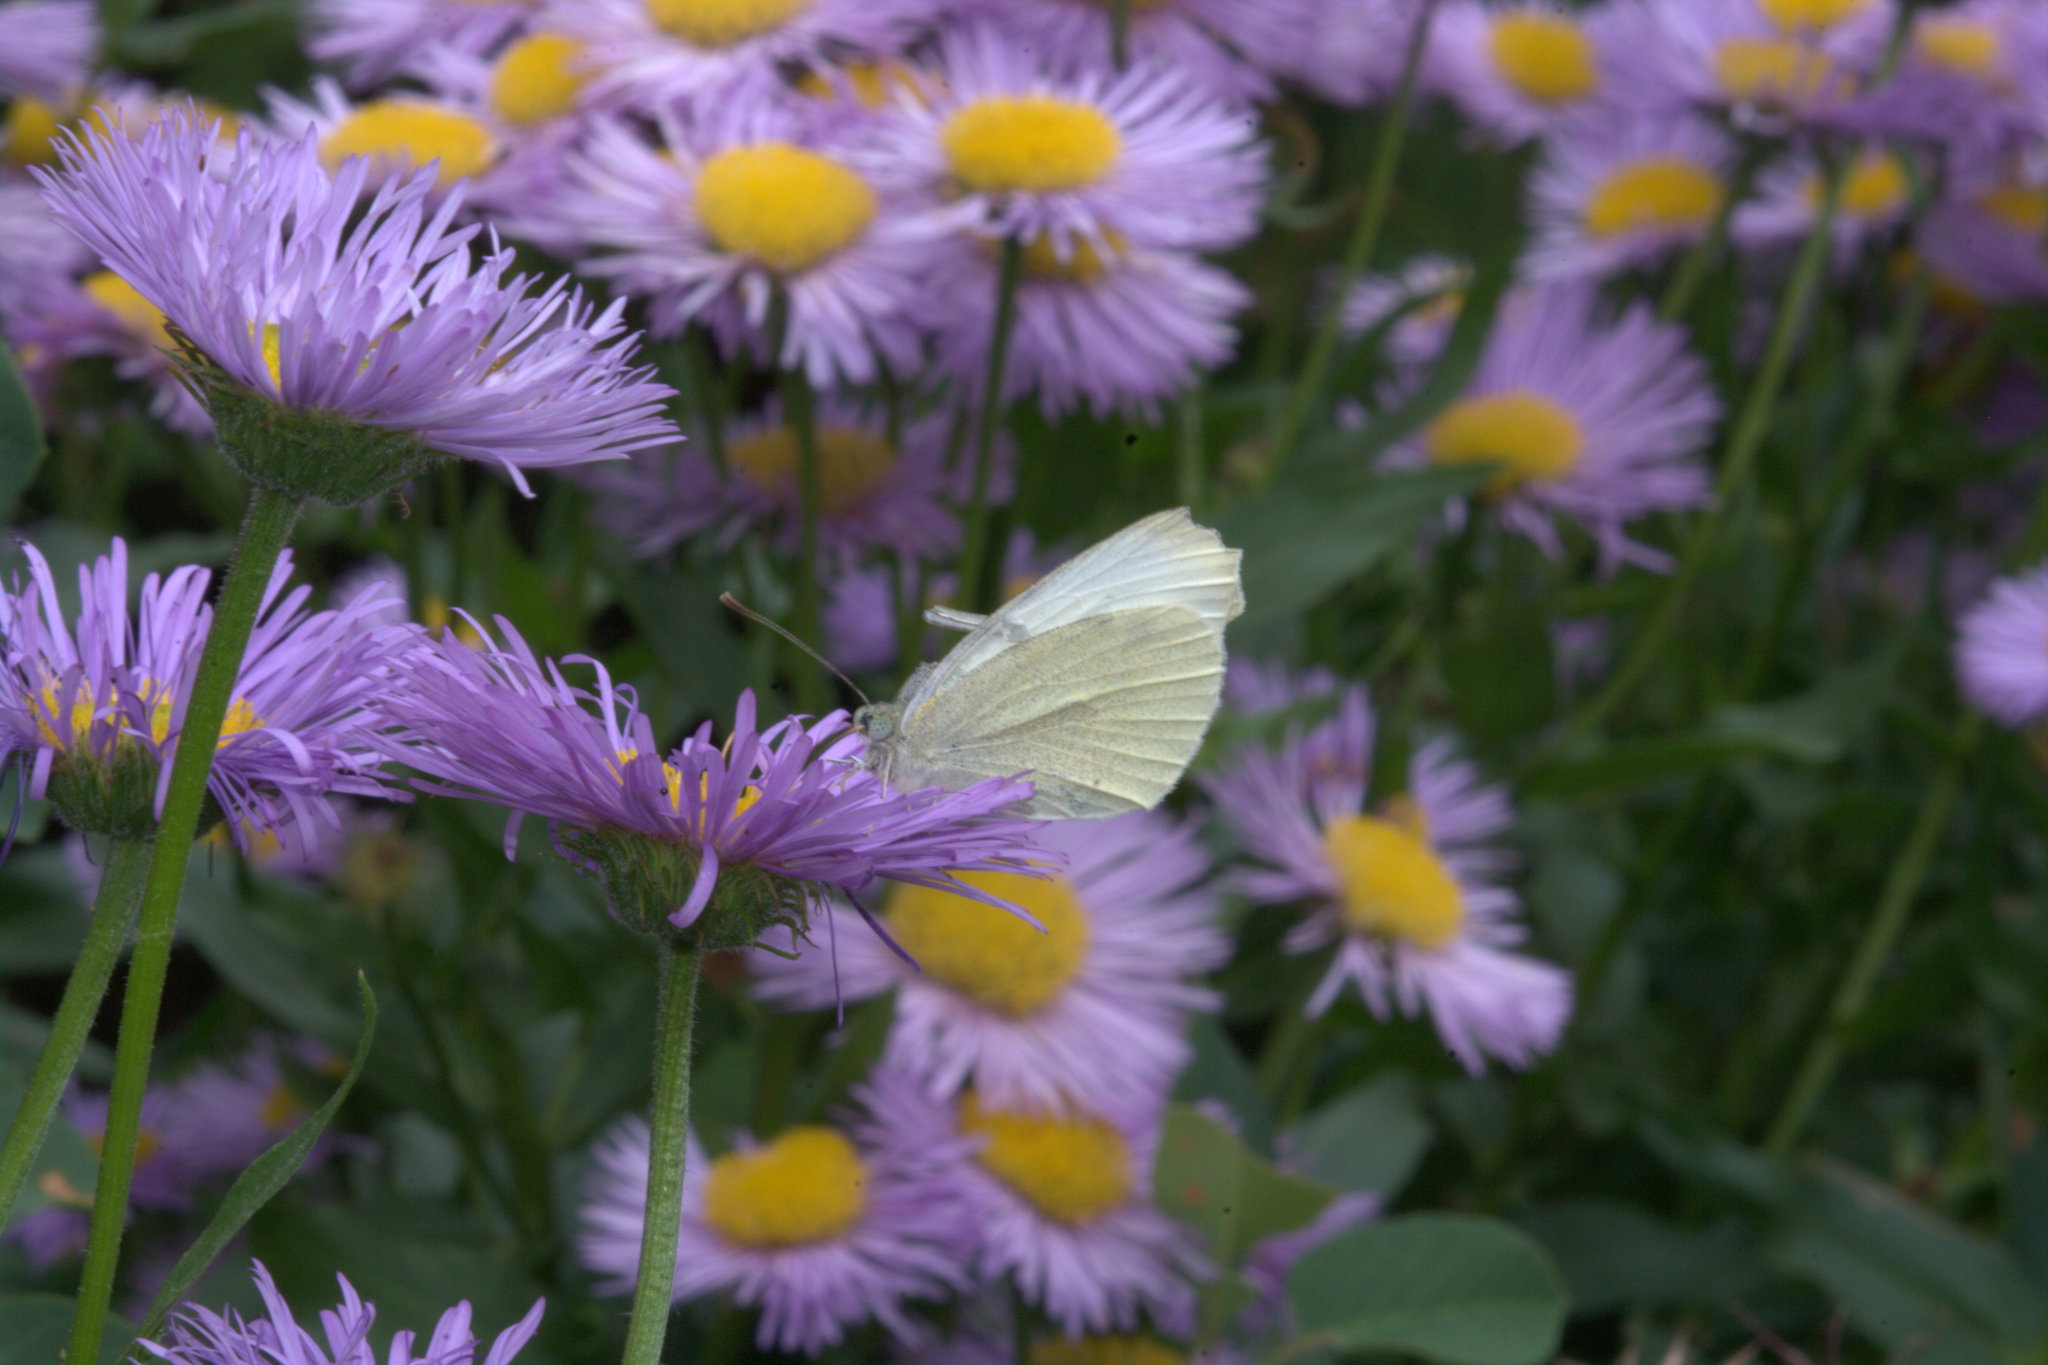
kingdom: Animalia
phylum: Arthropoda
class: Insecta
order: Lepidoptera
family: Pieridae
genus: Pieris
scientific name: Pieris rapae
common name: Small white
